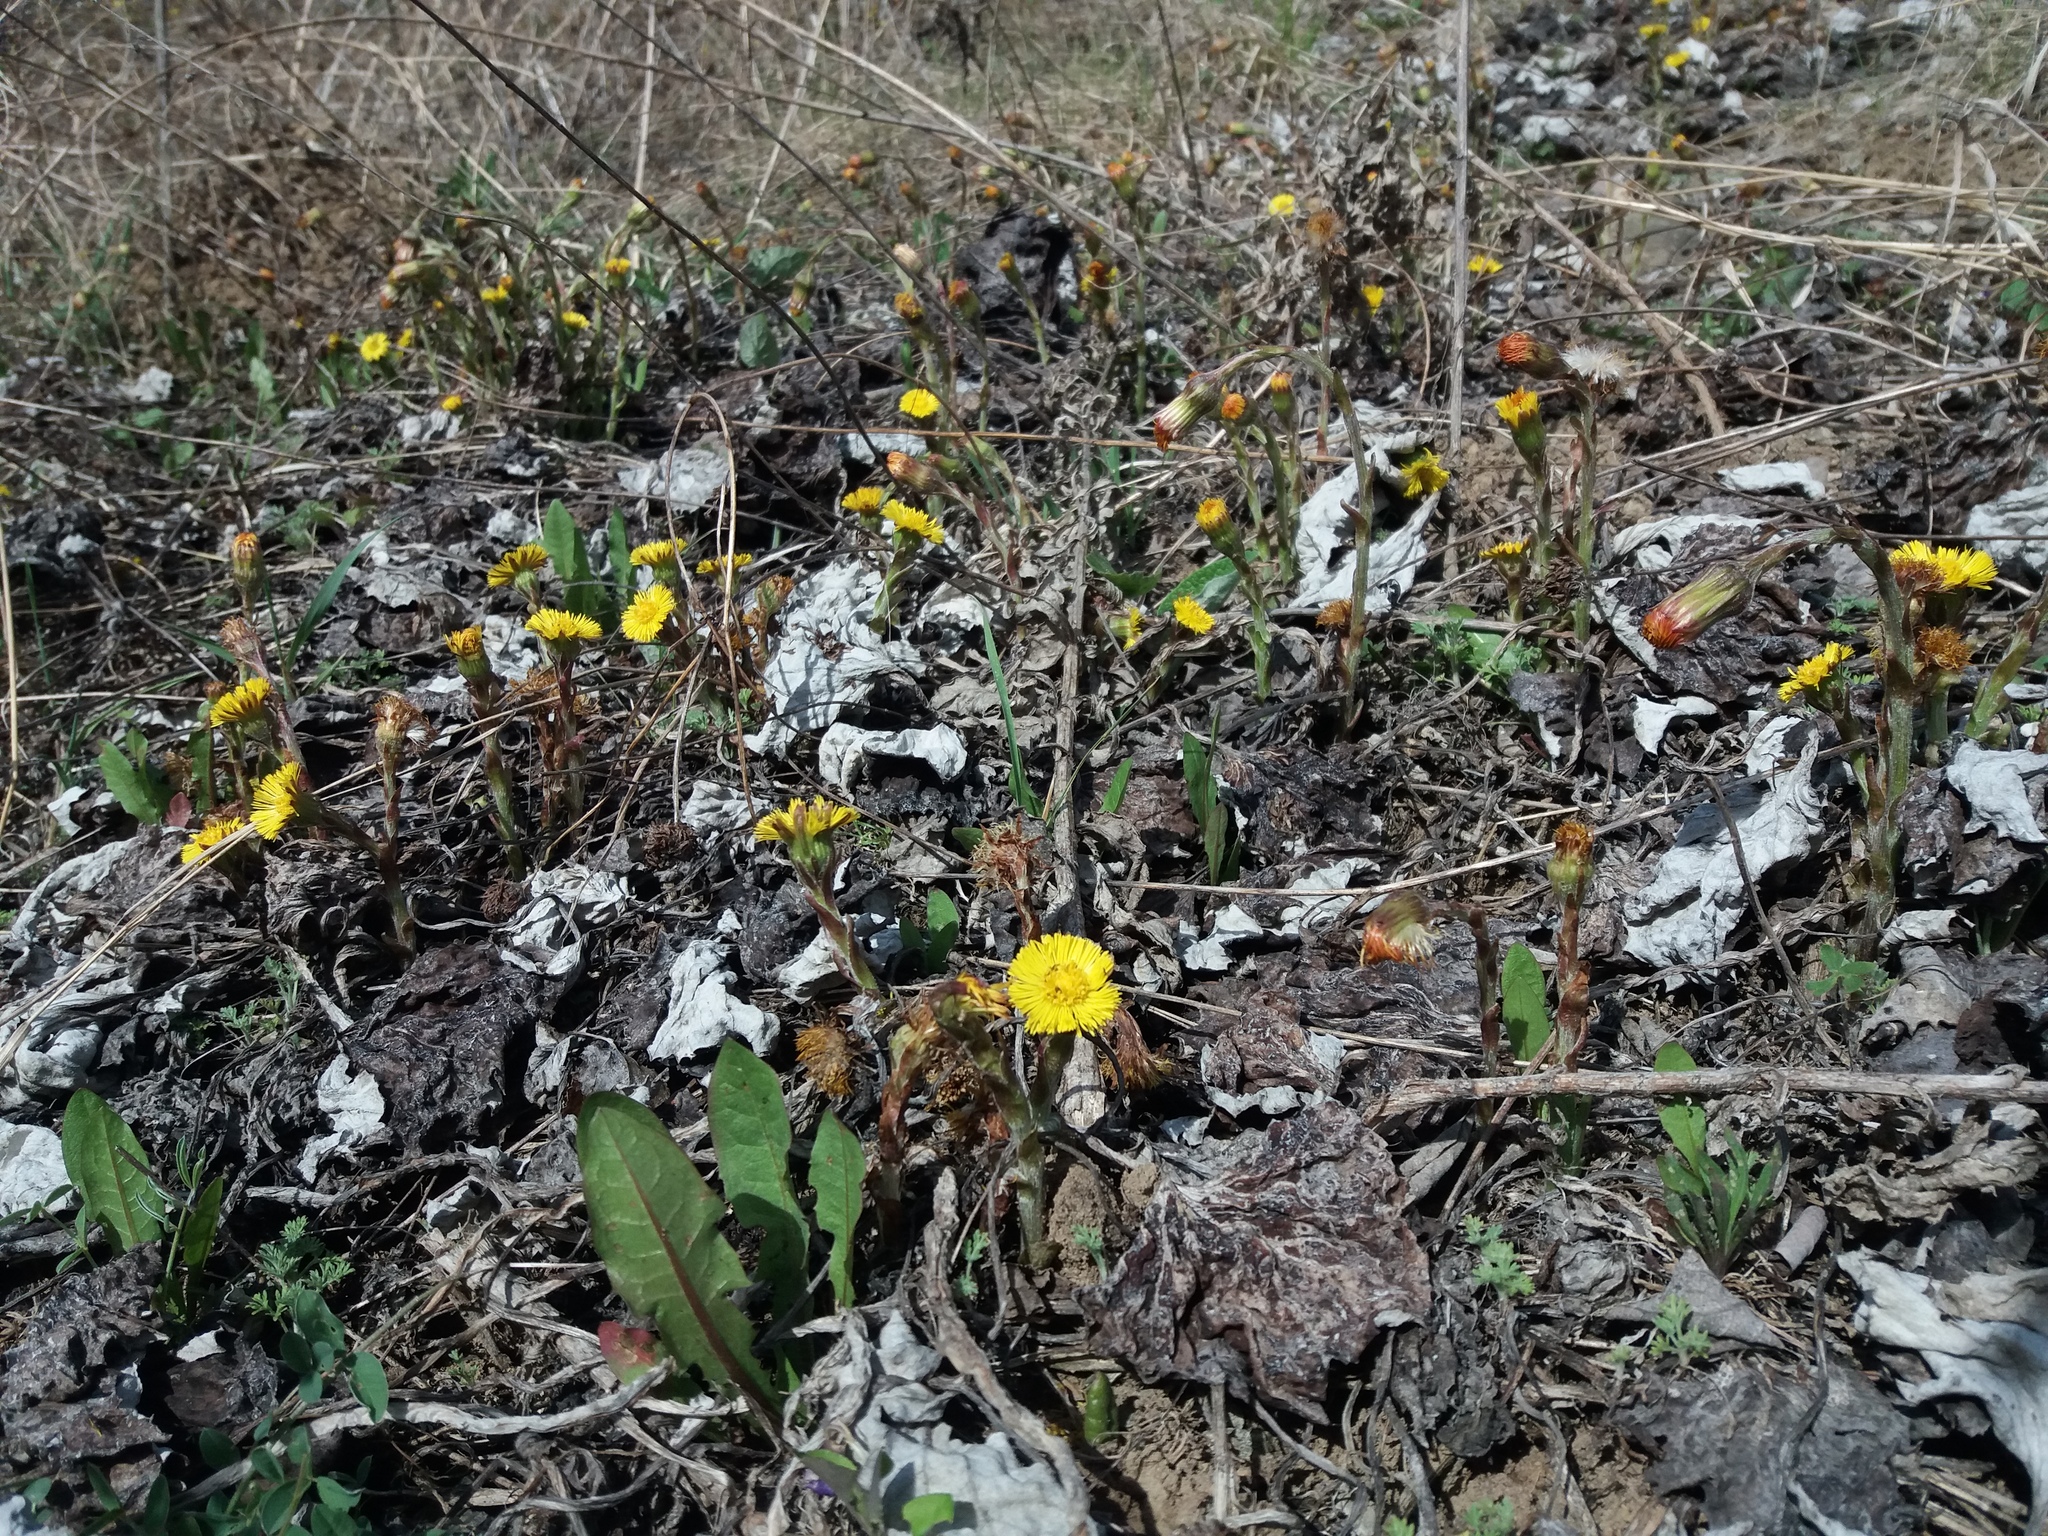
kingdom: Plantae
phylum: Tracheophyta
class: Magnoliopsida
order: Asterales
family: Asteraceae
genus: Tussilago
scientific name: Tussilago farfara
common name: Coltsfoot
